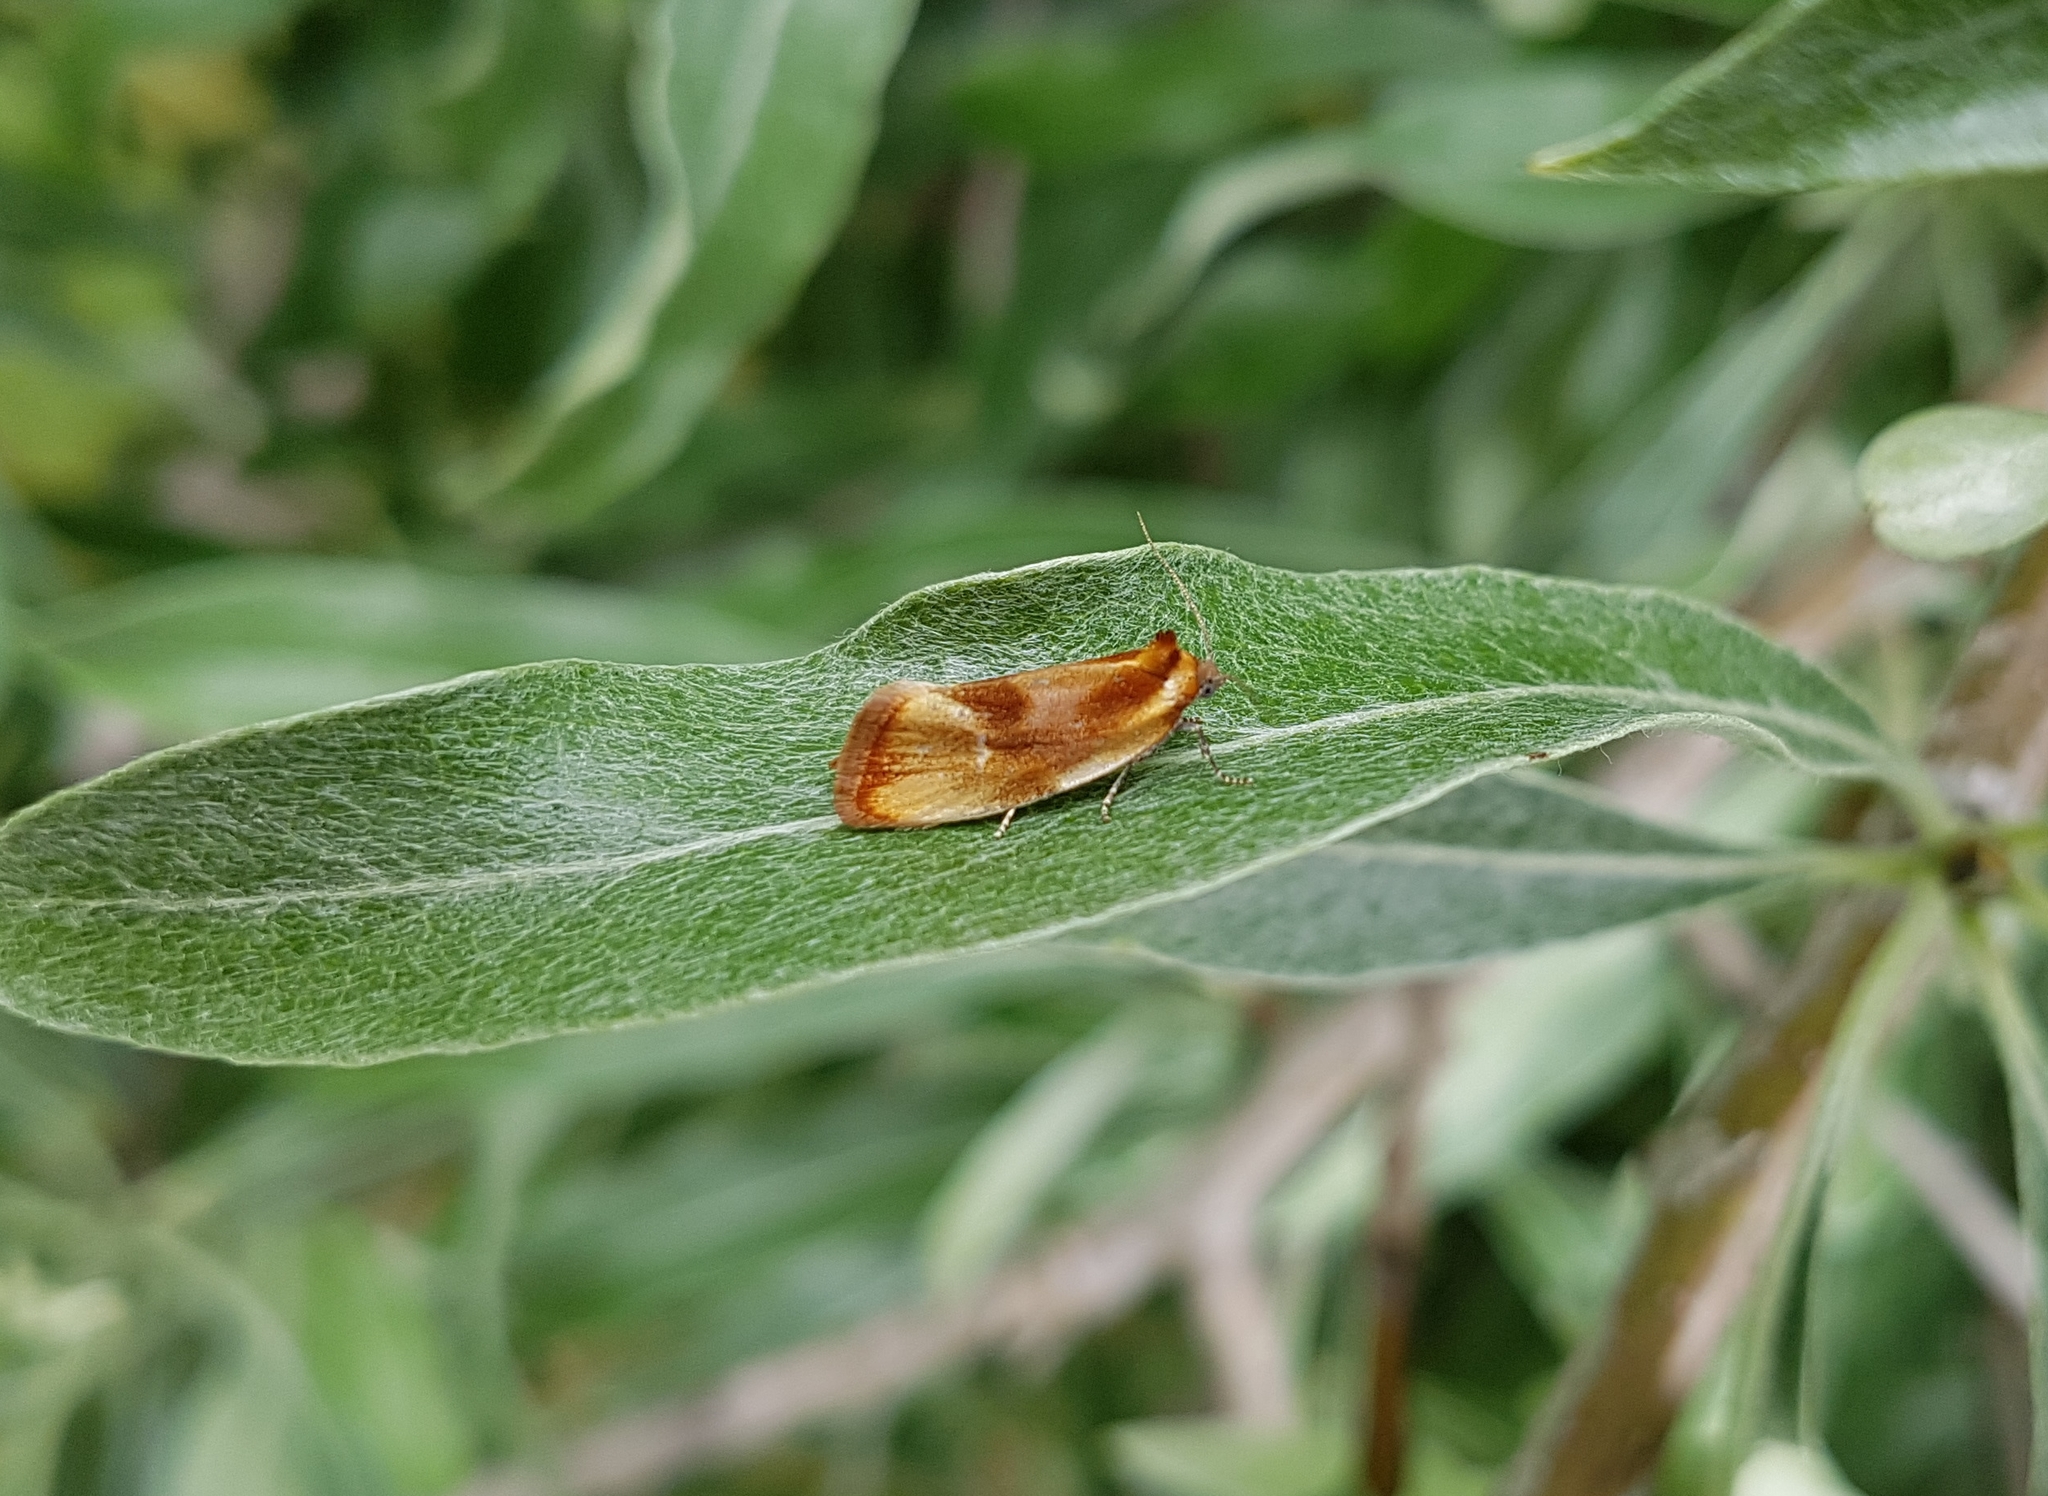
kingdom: Animalia
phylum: Arthropoda
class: Insecta
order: Lepidoptera
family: Tortricidae
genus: Eulia
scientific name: Eulia ministrana
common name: Brassy twist
